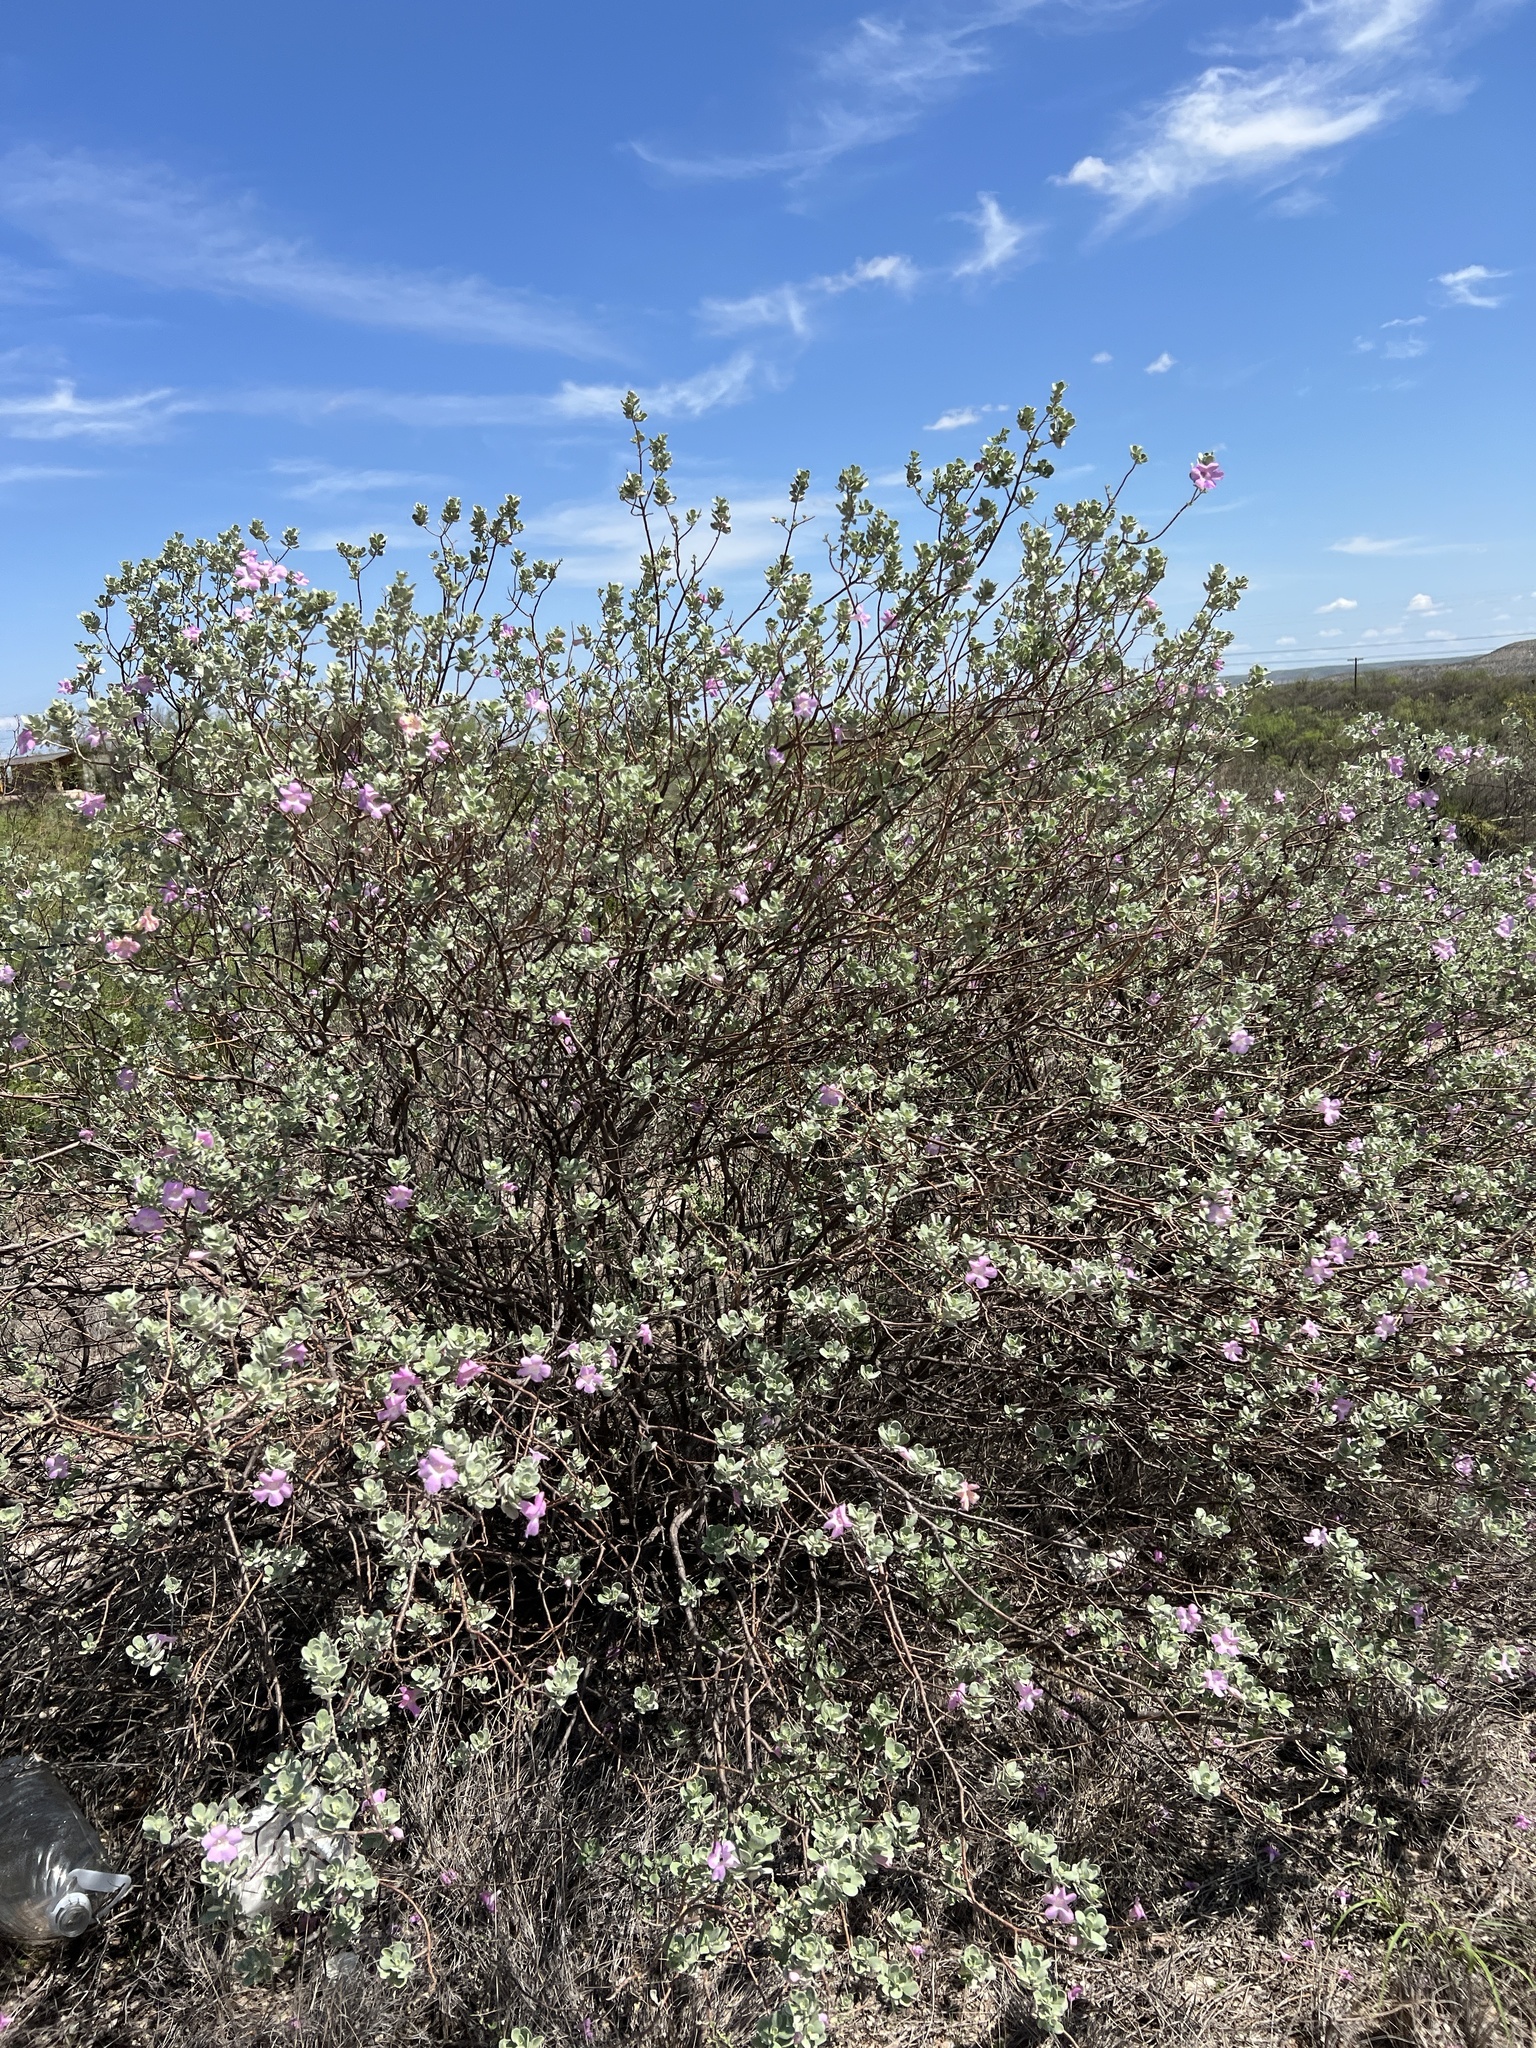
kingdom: Plantae
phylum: Tracheophyta
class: Magnoliopsida
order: Lamiales
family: Scrophulariaceae
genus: Leucophyllum
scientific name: Leucophyllum frutescens
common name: Texas silverleaf
